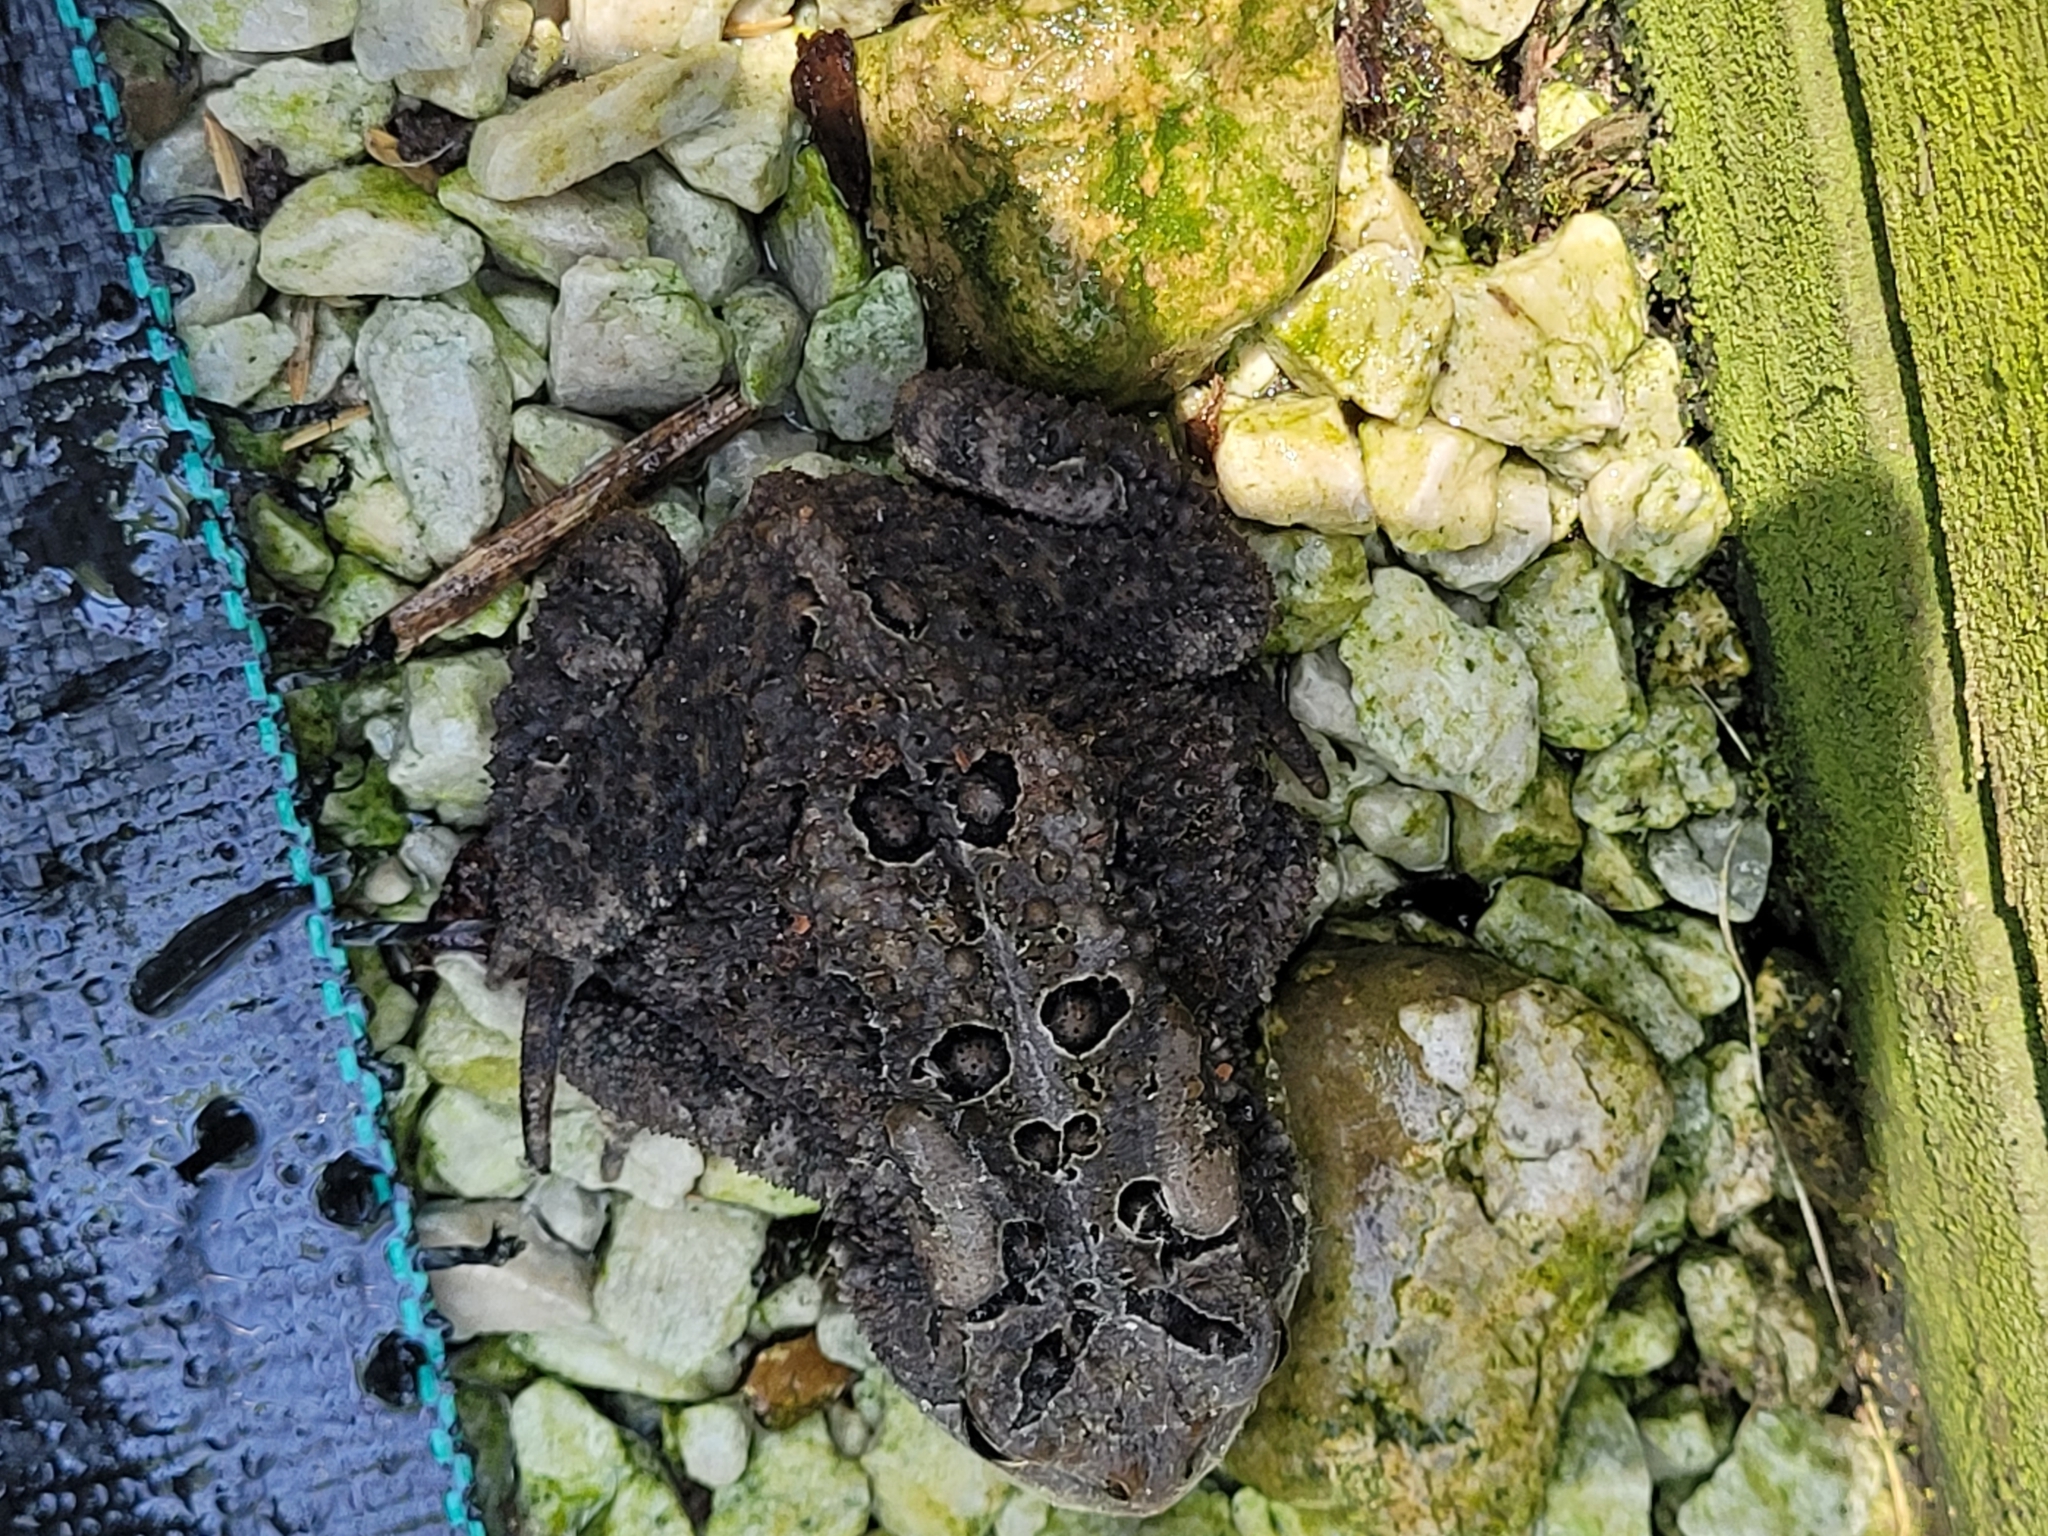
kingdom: Animalia
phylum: Chordata
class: Amphibia
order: Anura
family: Bufonidae
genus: Anaxyrus
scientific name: Anaxyrus americanus
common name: American toad
